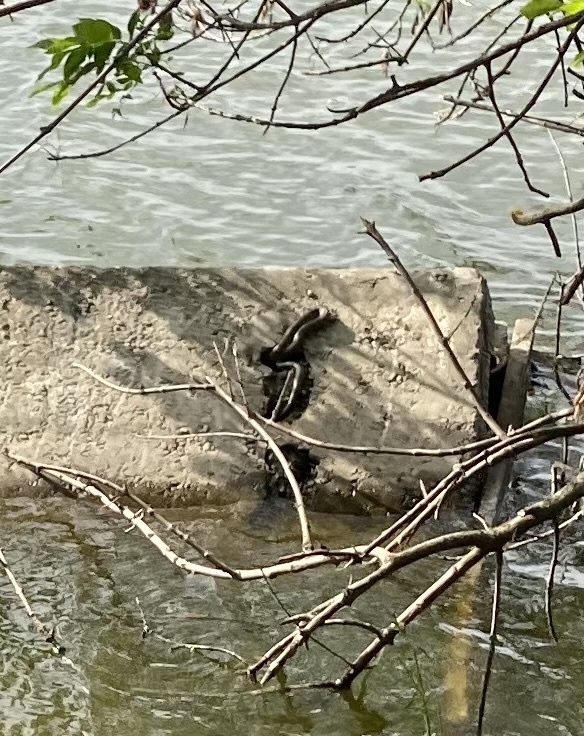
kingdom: Animalia
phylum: Chordata
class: Squamata
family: Colubridae
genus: Natrix
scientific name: Natrix tessellata
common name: Dice snake
